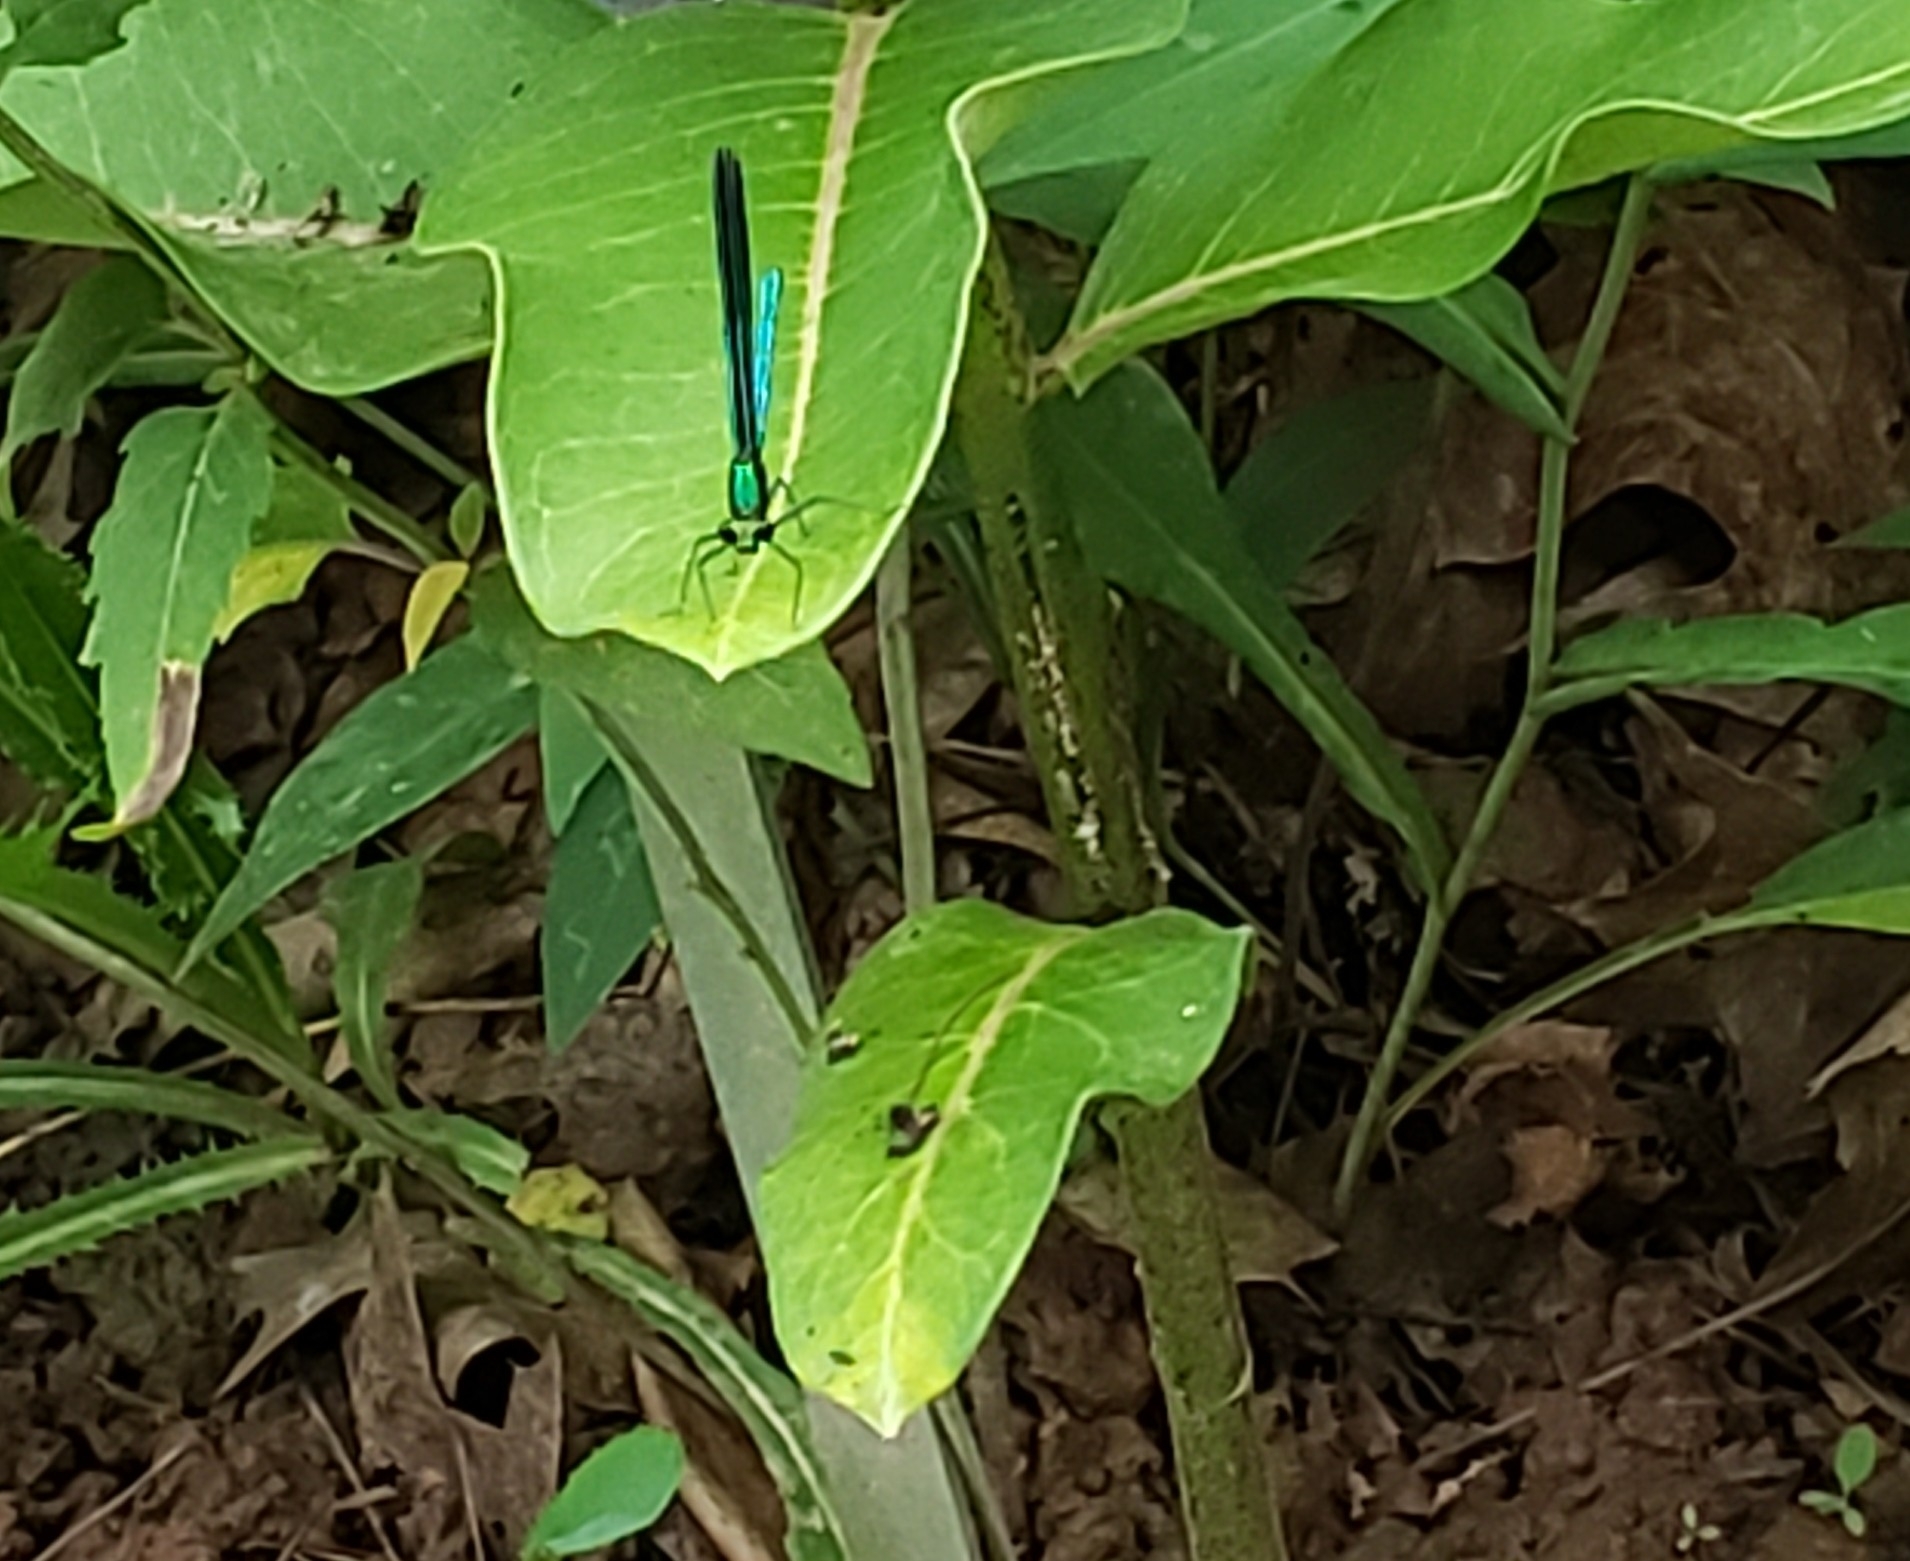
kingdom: Animalia
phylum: Arthropoda
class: Insecta
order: Odonata
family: Calopterygidae
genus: Calopteryx
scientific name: Calopteryx maculata
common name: Ebony jewelwing
